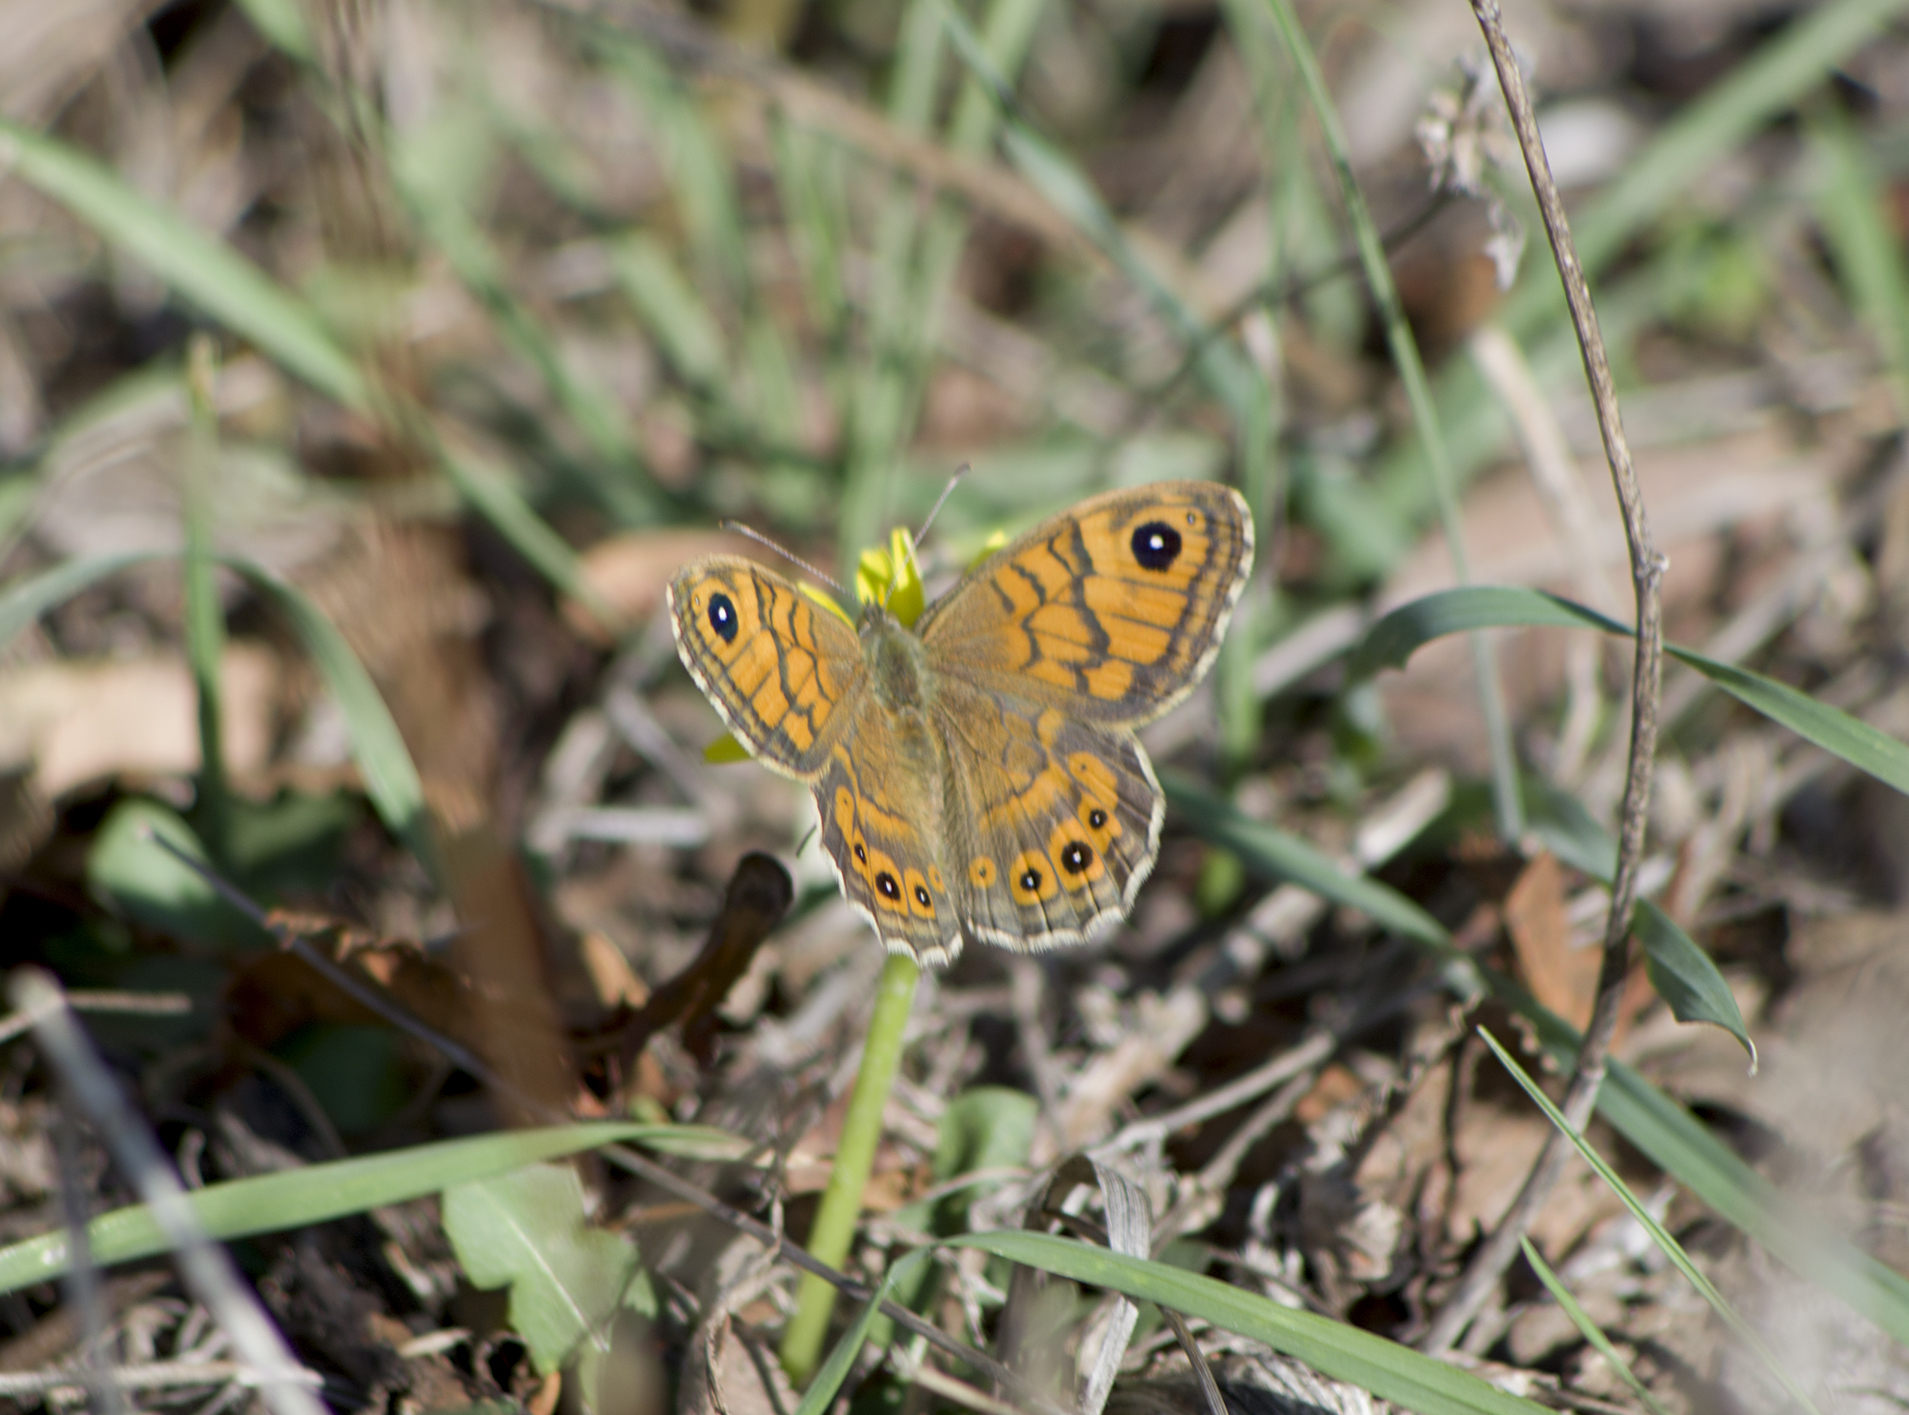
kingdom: Animalia
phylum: Arthropoda
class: Insecta
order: Lepidoptera
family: Nymphalidae
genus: Pararge
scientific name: Pararge Lasiommata megera
